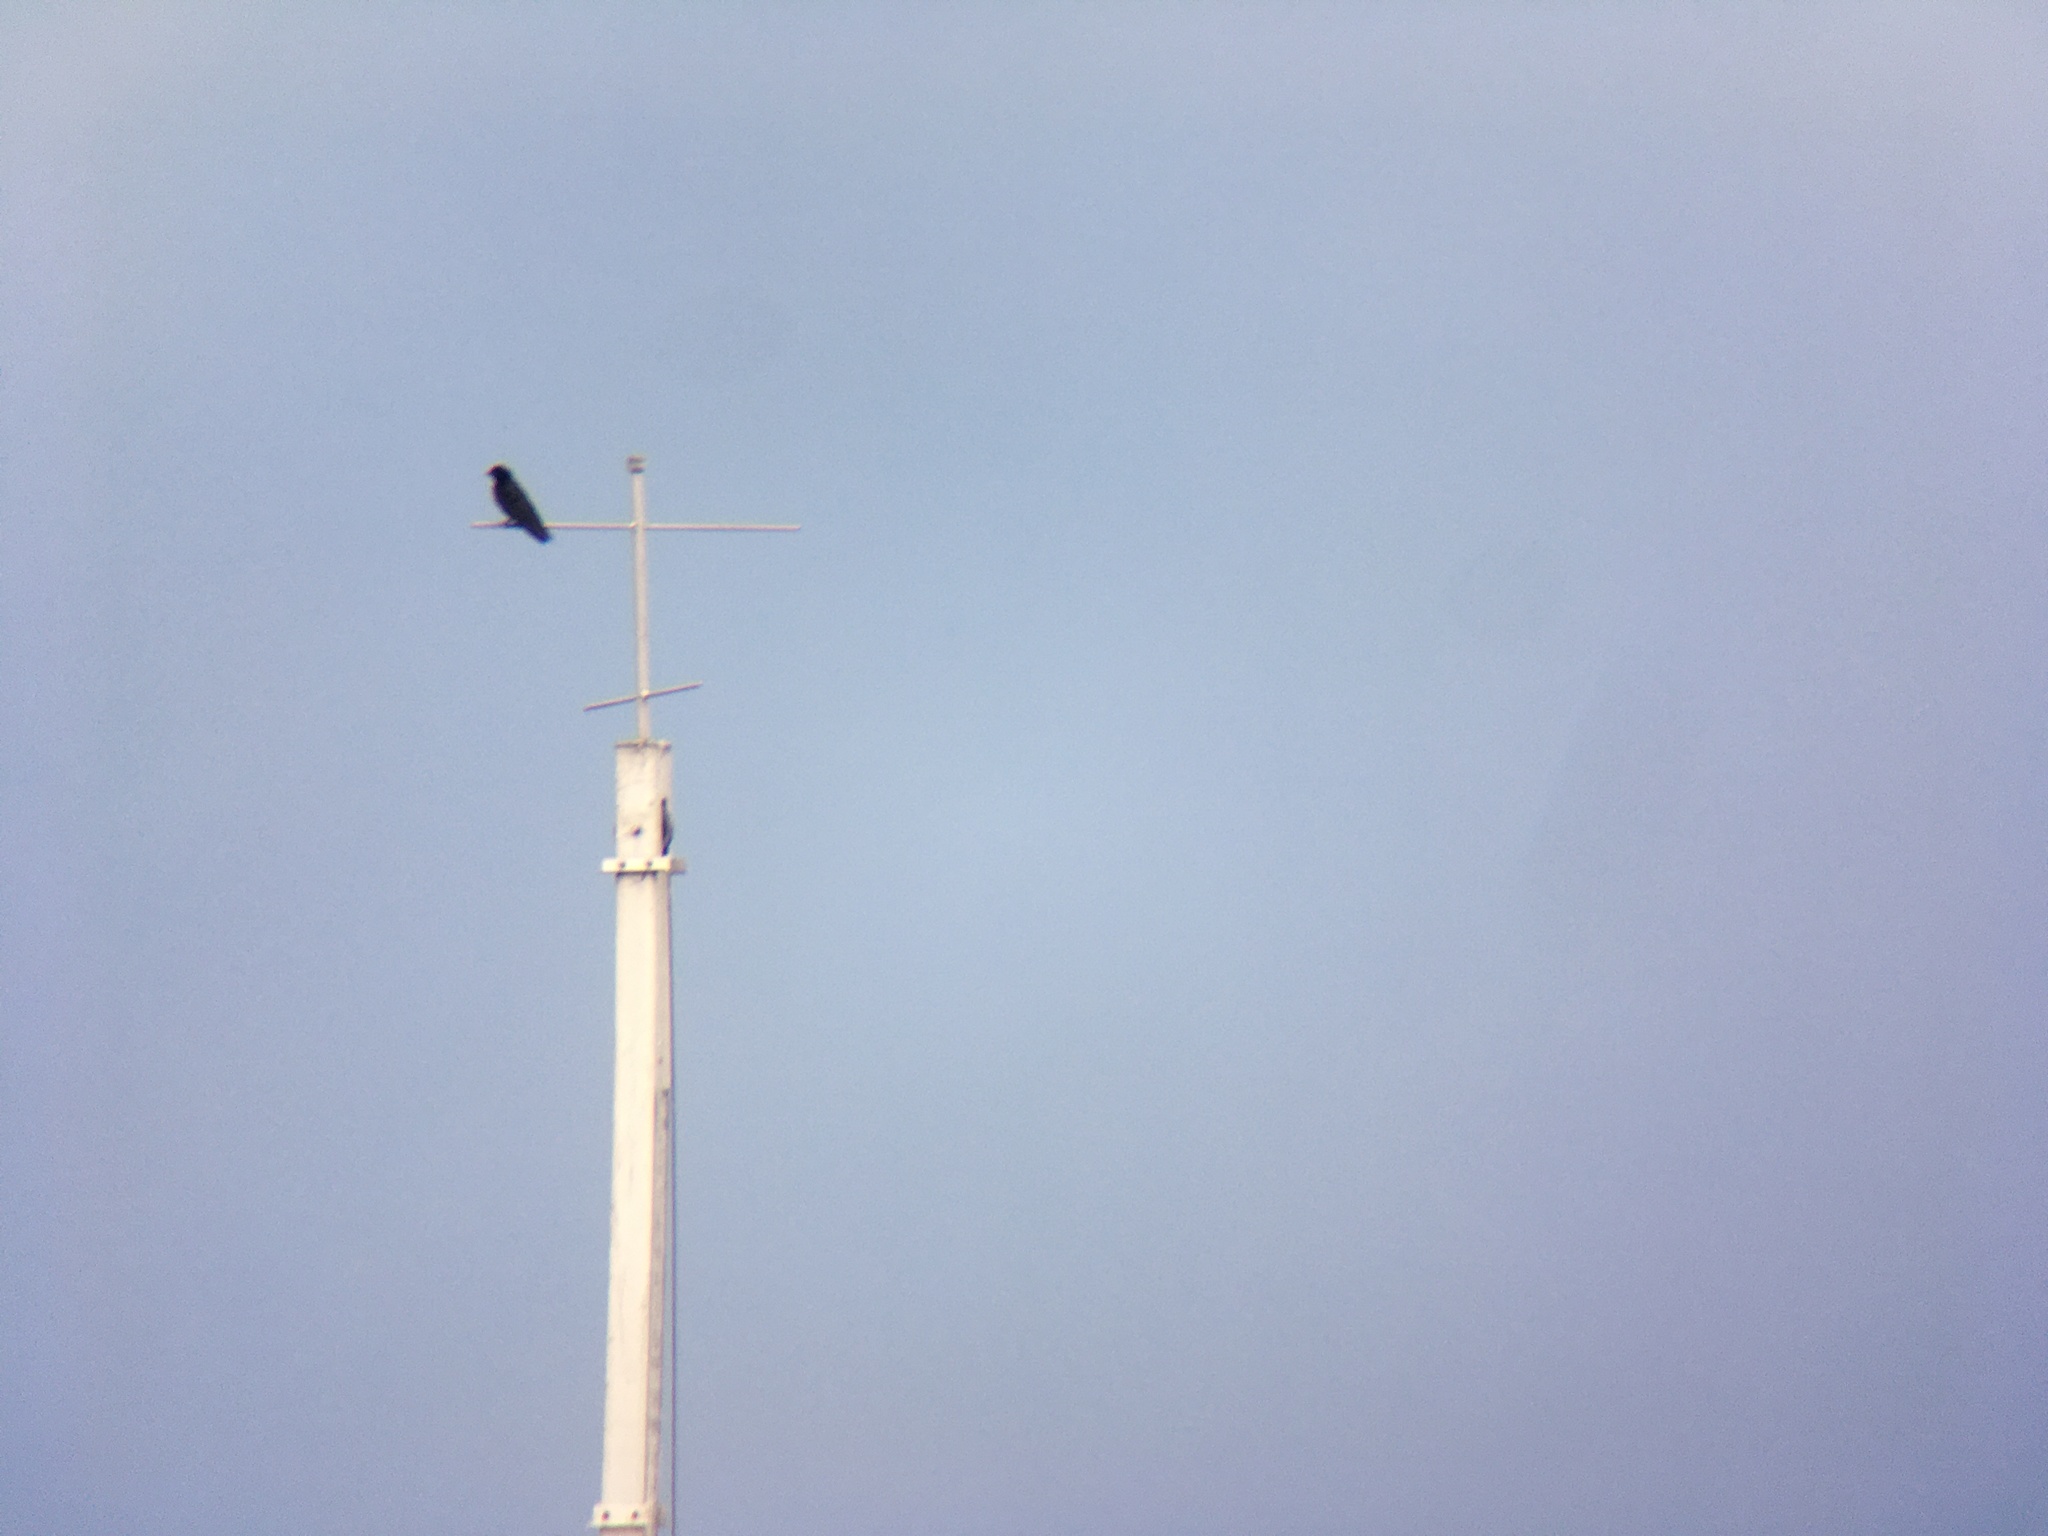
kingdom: Animalia
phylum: Chordata
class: Aves
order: Passeriformes
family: Hirundinidae
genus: Progne
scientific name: Progne subis
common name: Purple martin
